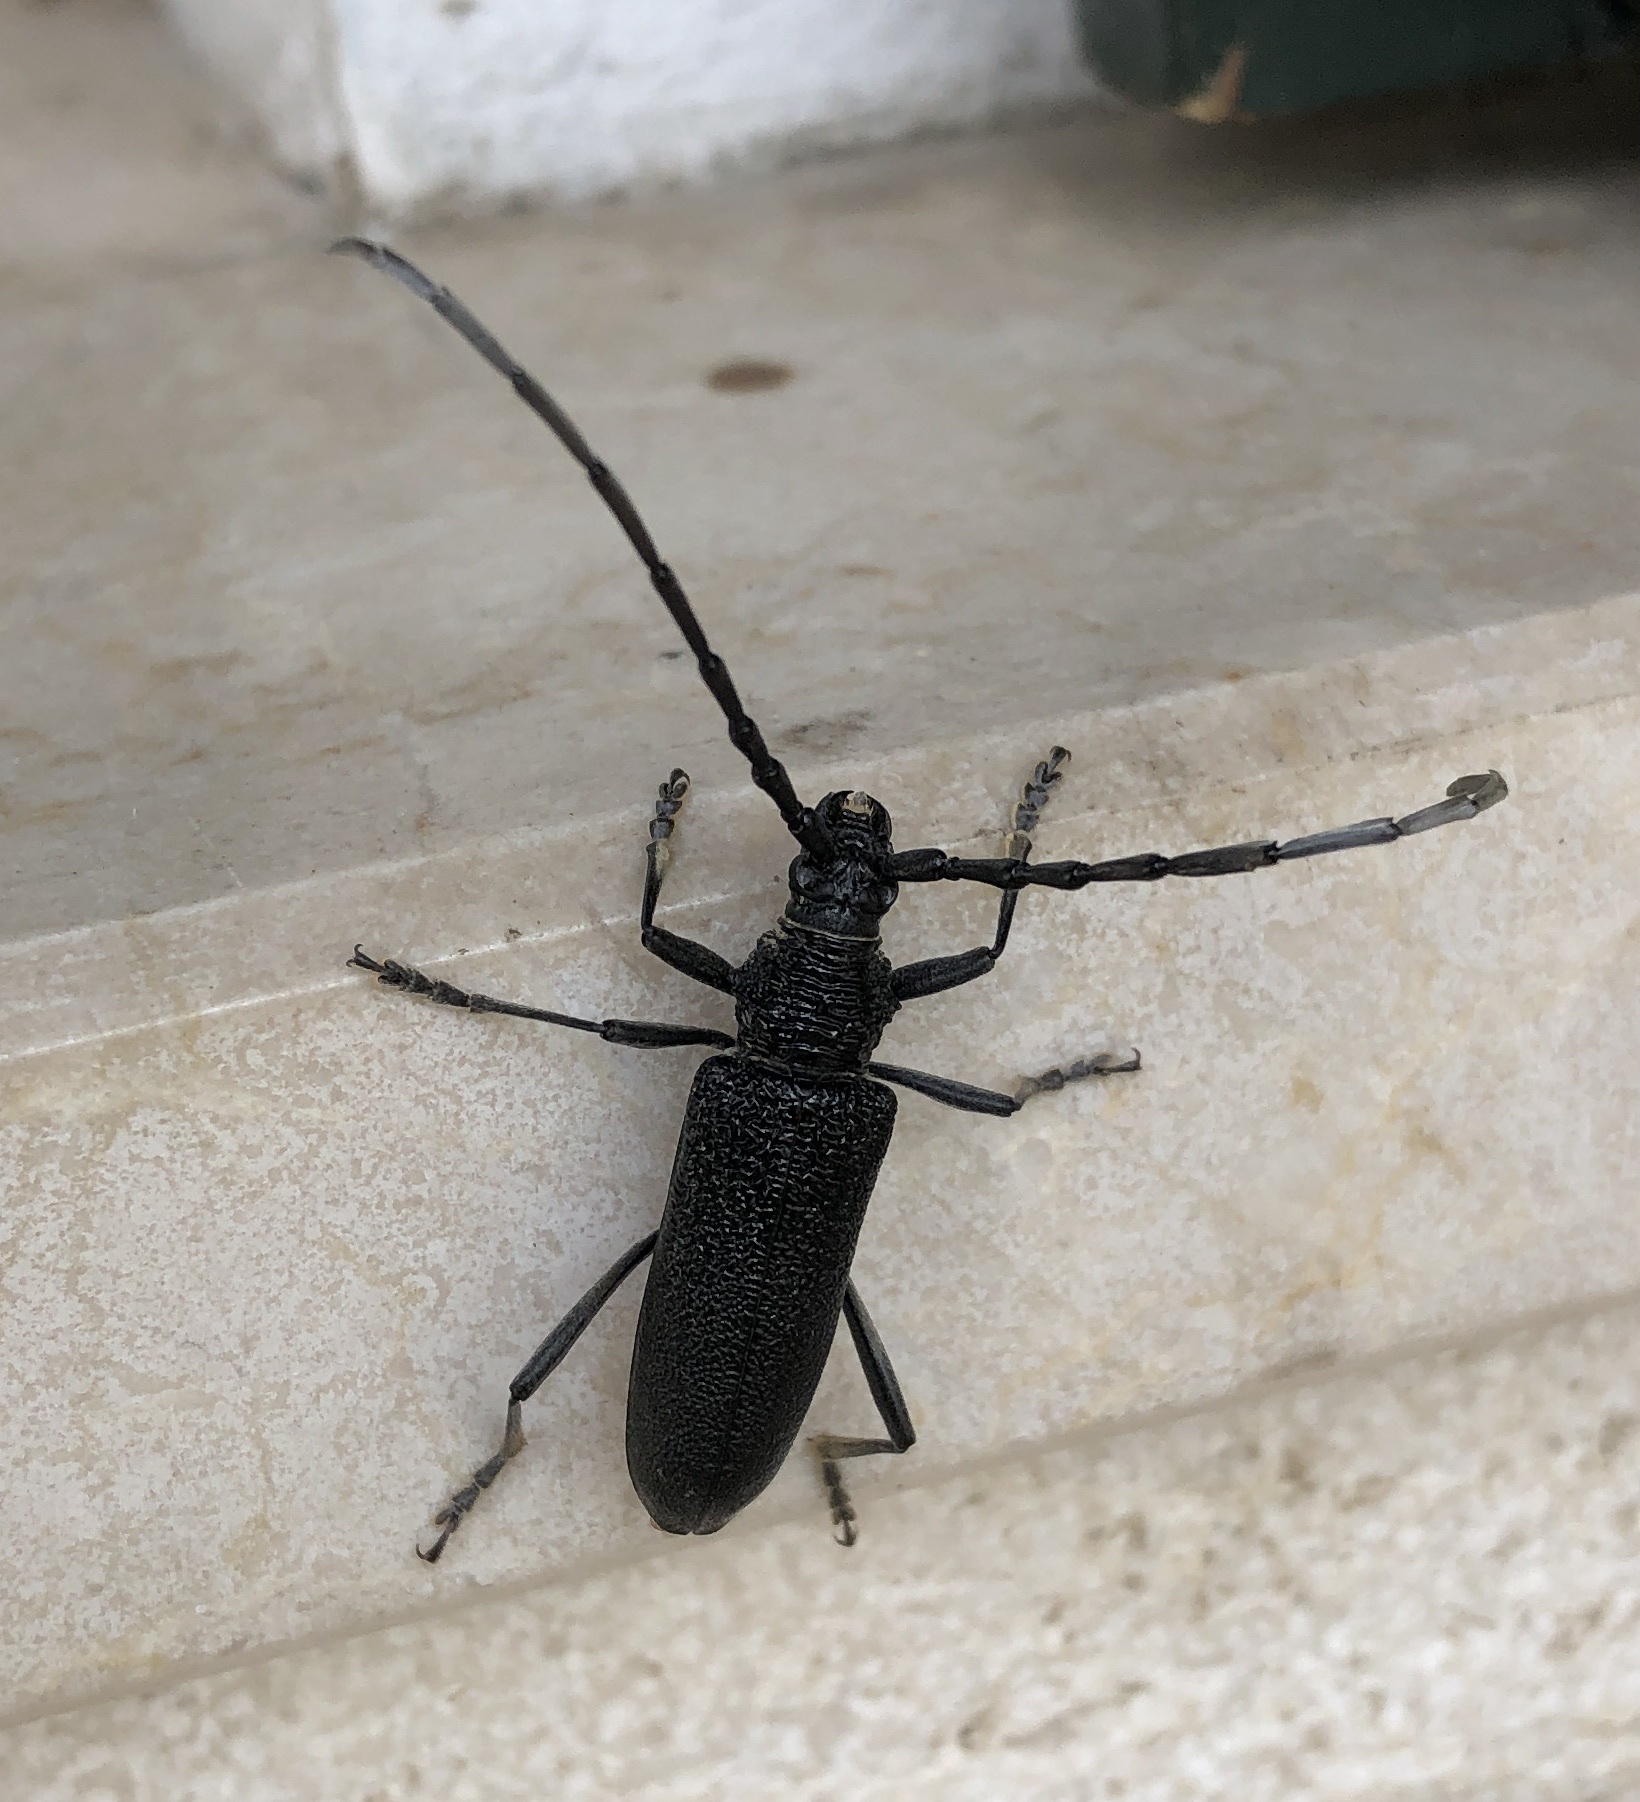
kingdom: Animalia
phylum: Arthropoda
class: Insecta
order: Coleoptera
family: Cerambycidae
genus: Cerambyx
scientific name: Cerambyx scopolii
